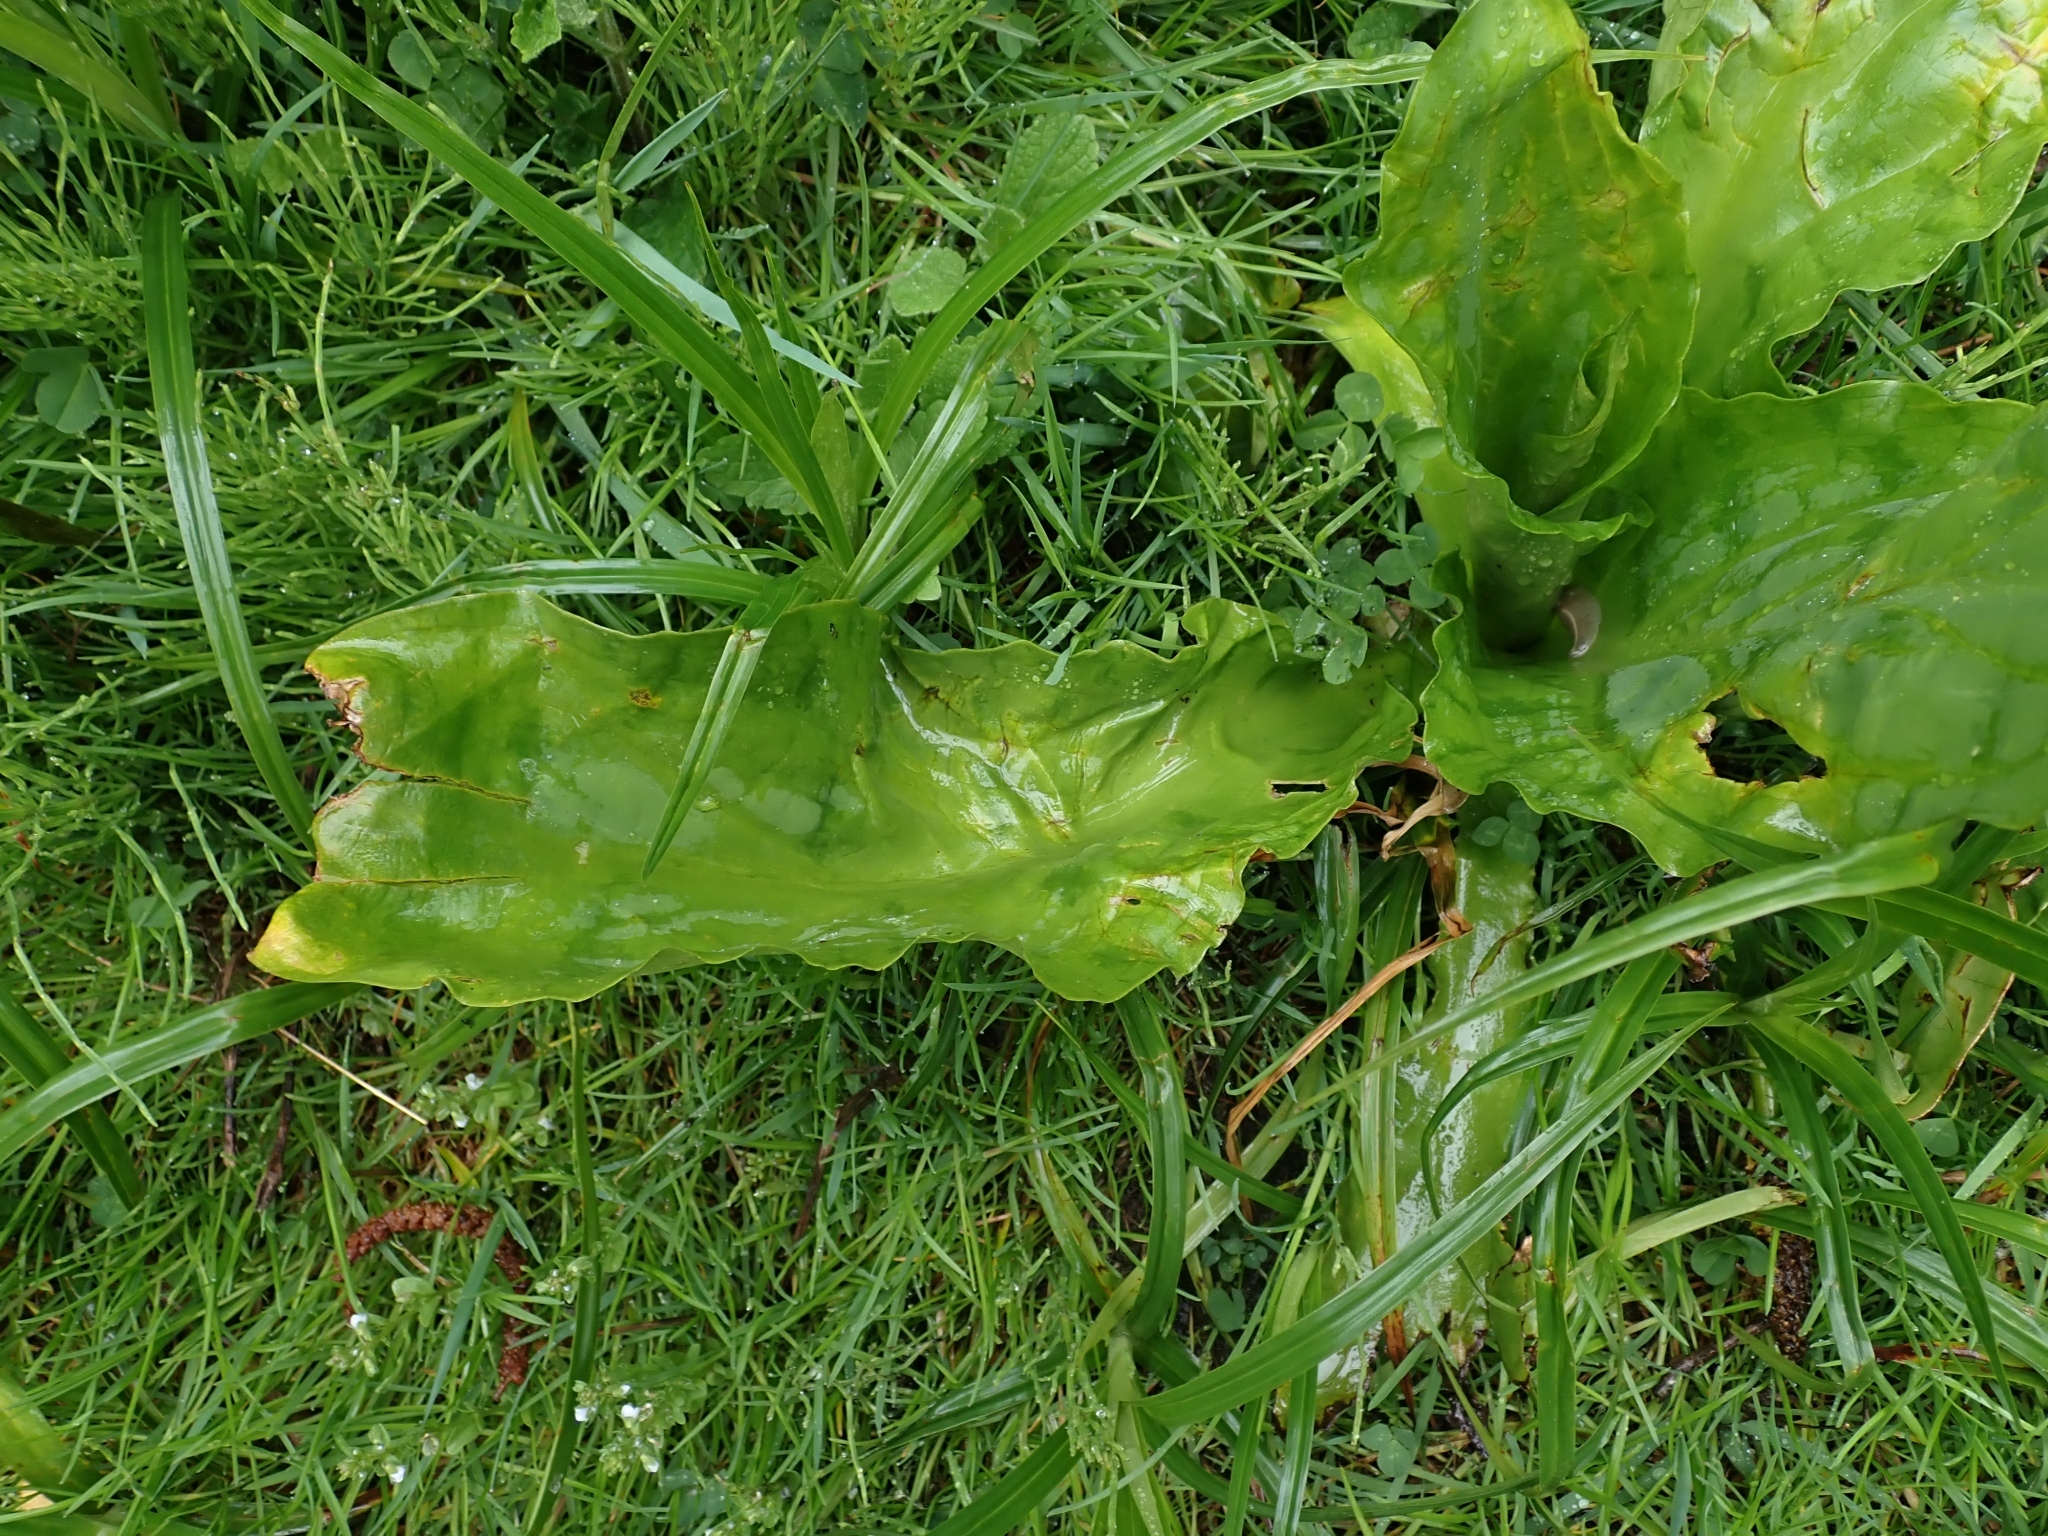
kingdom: Plantae
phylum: Tracheophyta
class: Liliopsida
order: Alismatales
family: Araceae
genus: Lysichiton
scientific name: Lysichiton americanus
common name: American skunk cabbage
